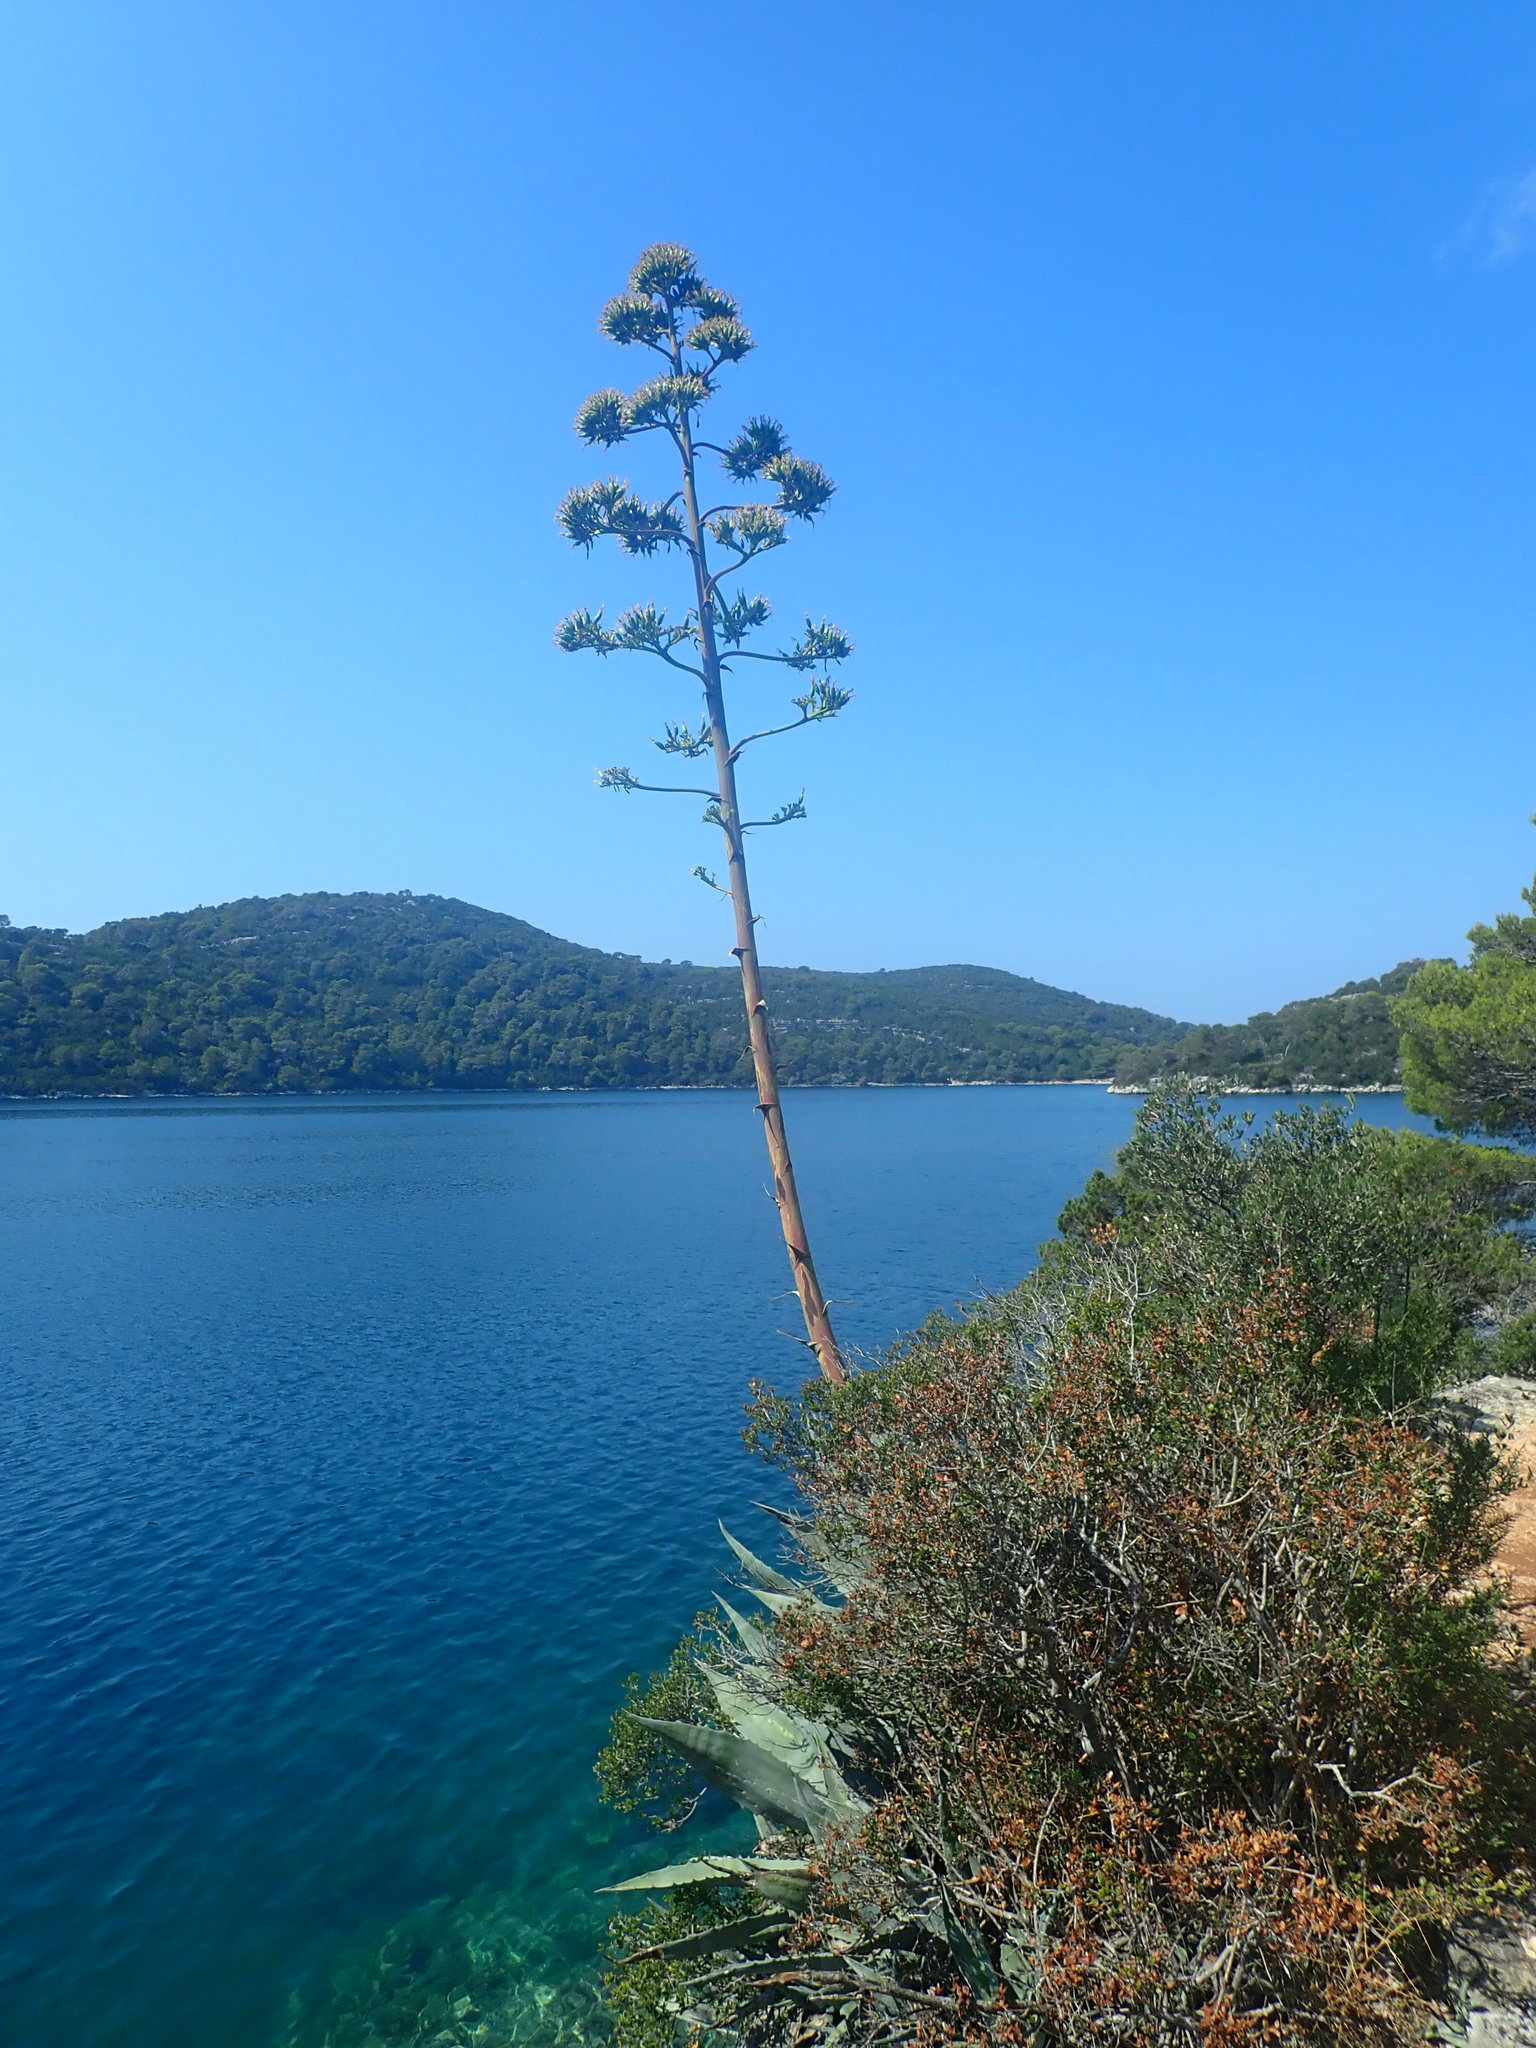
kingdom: Plantae
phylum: Tracheophyta
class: Liliopsida
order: Asparagales
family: Asparagaceae
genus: Agave
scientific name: Agave americana
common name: Centuryplant
